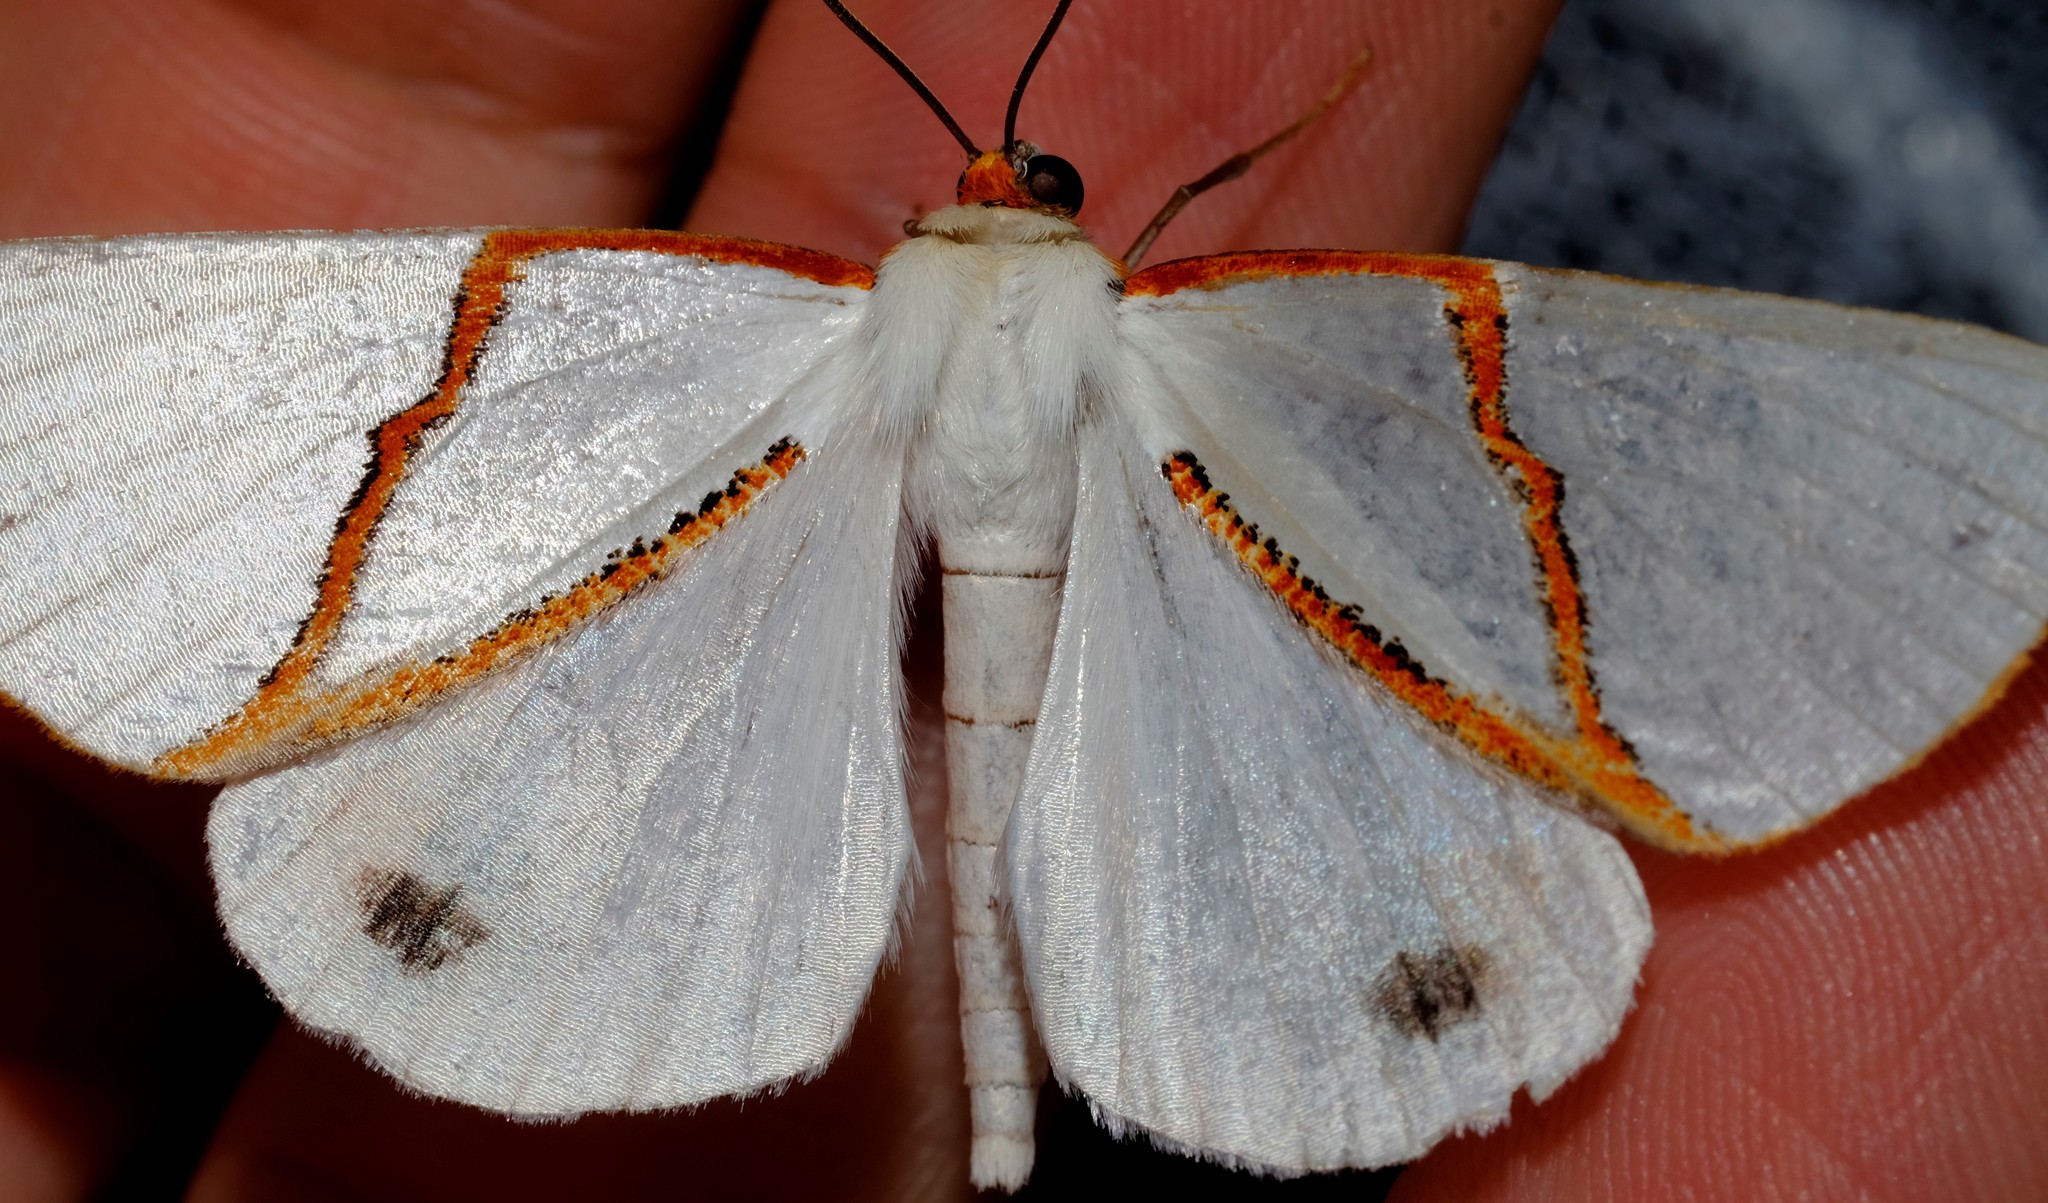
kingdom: Animalia
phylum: Arthropoda
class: Insecta
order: Lepidoptera
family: Geometridae
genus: Thalaina
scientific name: Thalaina selenaea
